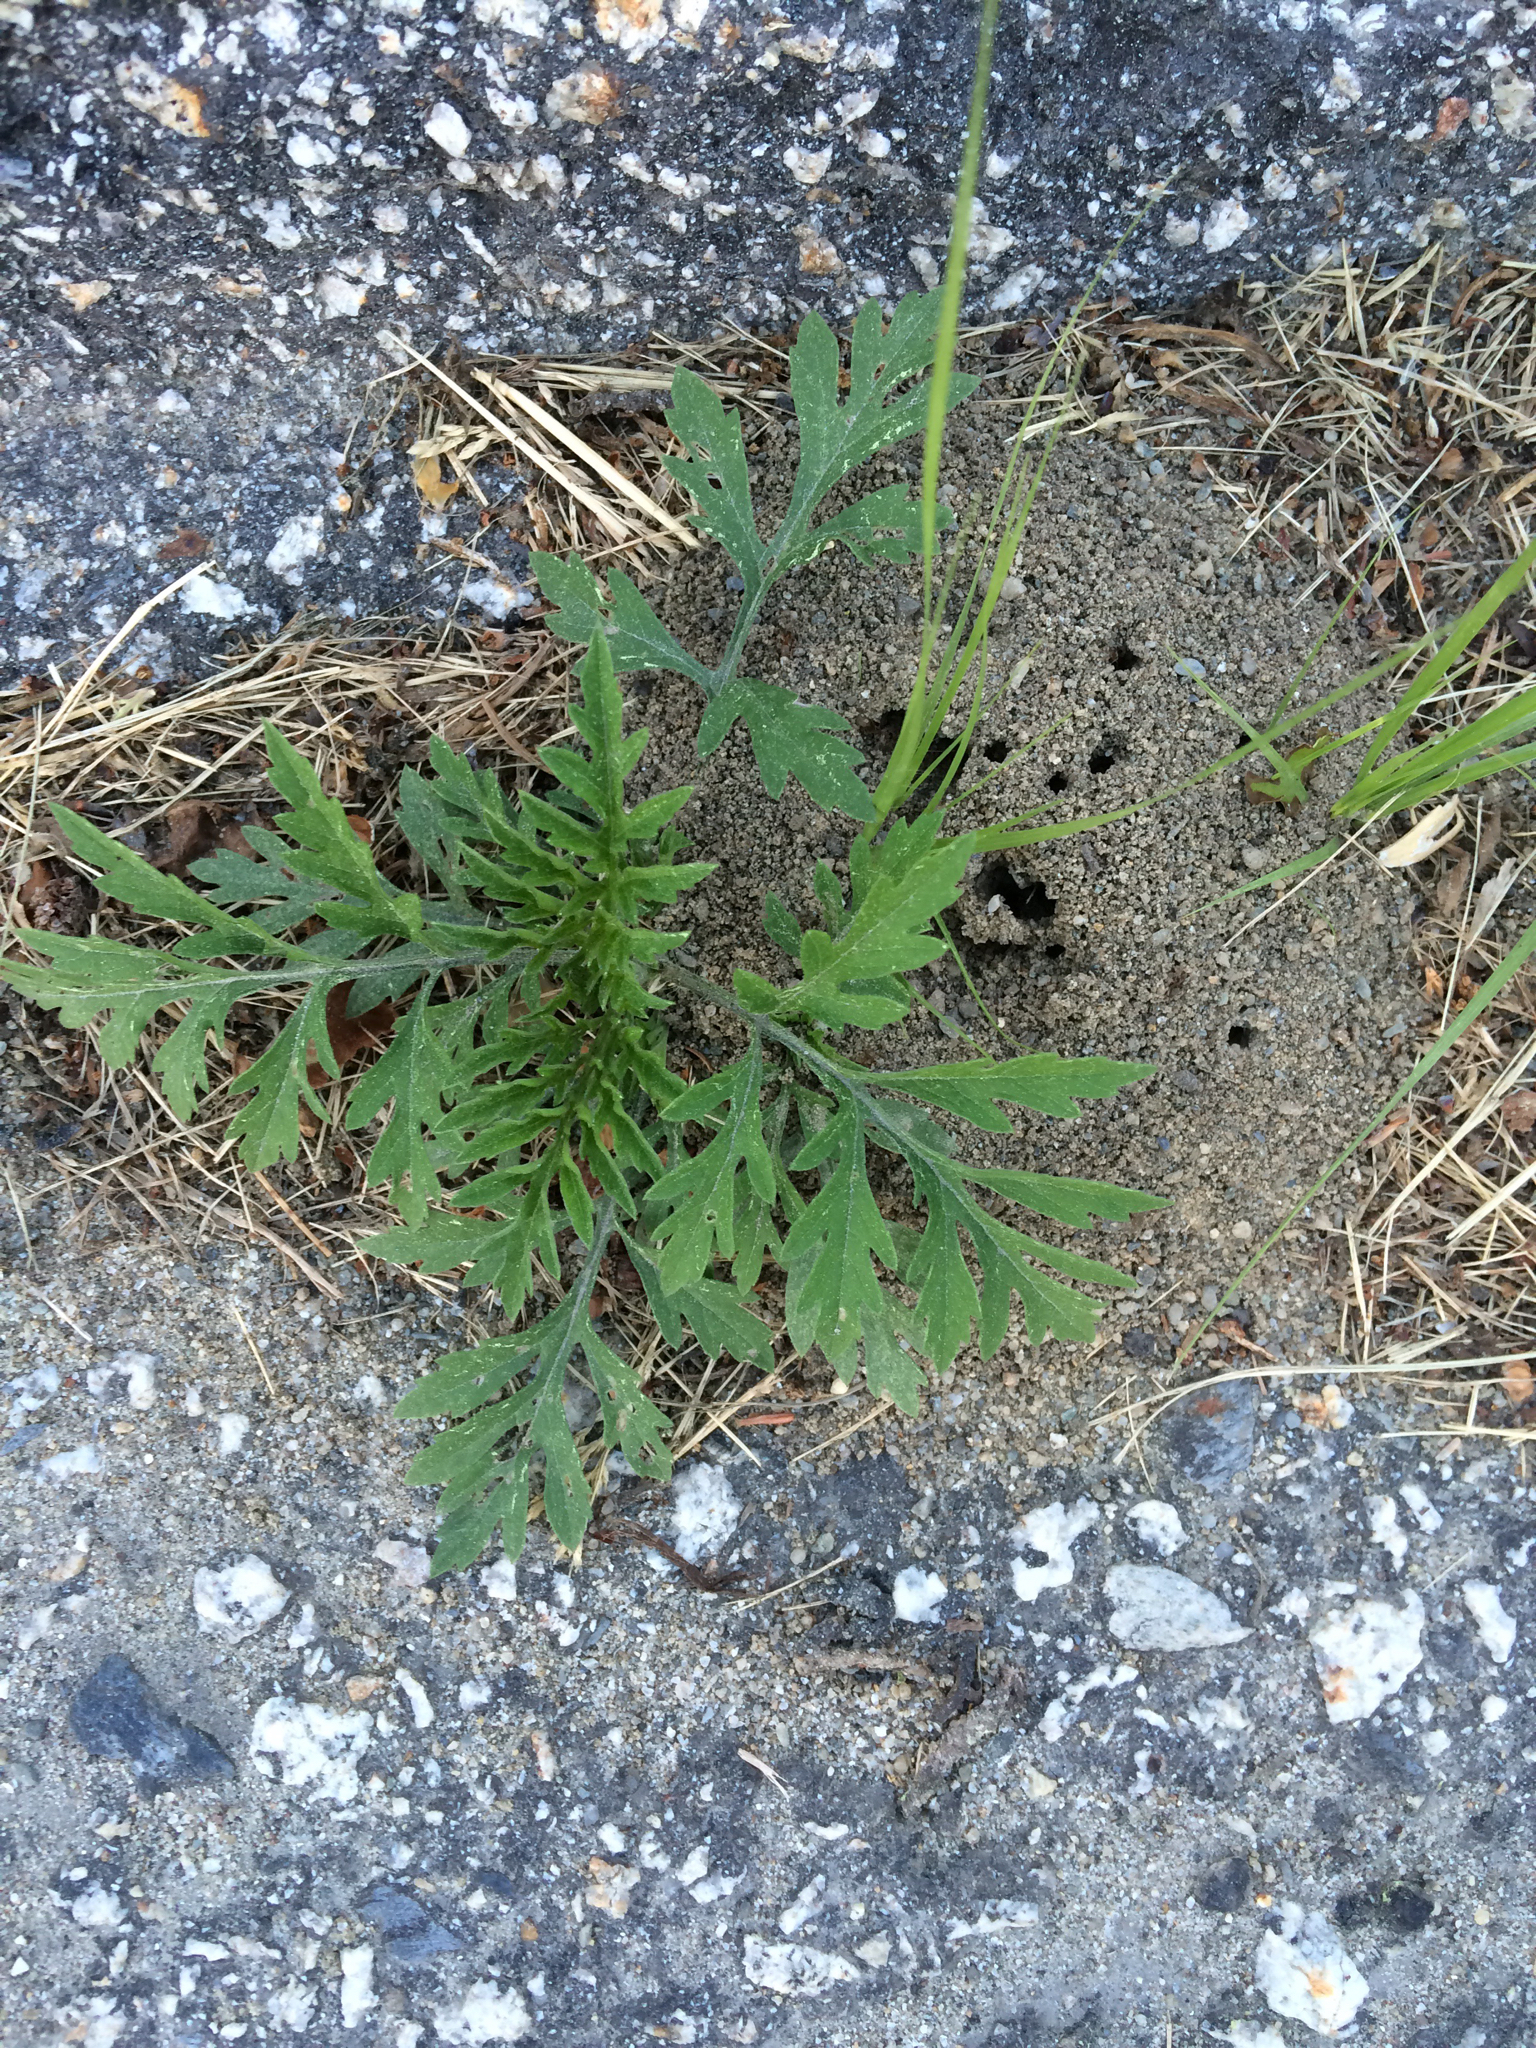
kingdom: Plantae
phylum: Tracheophyta
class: Magnoliopsida
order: Asterales
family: Asteraceae
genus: Artemisia
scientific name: Artemisia vulgaris
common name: Mugwort
